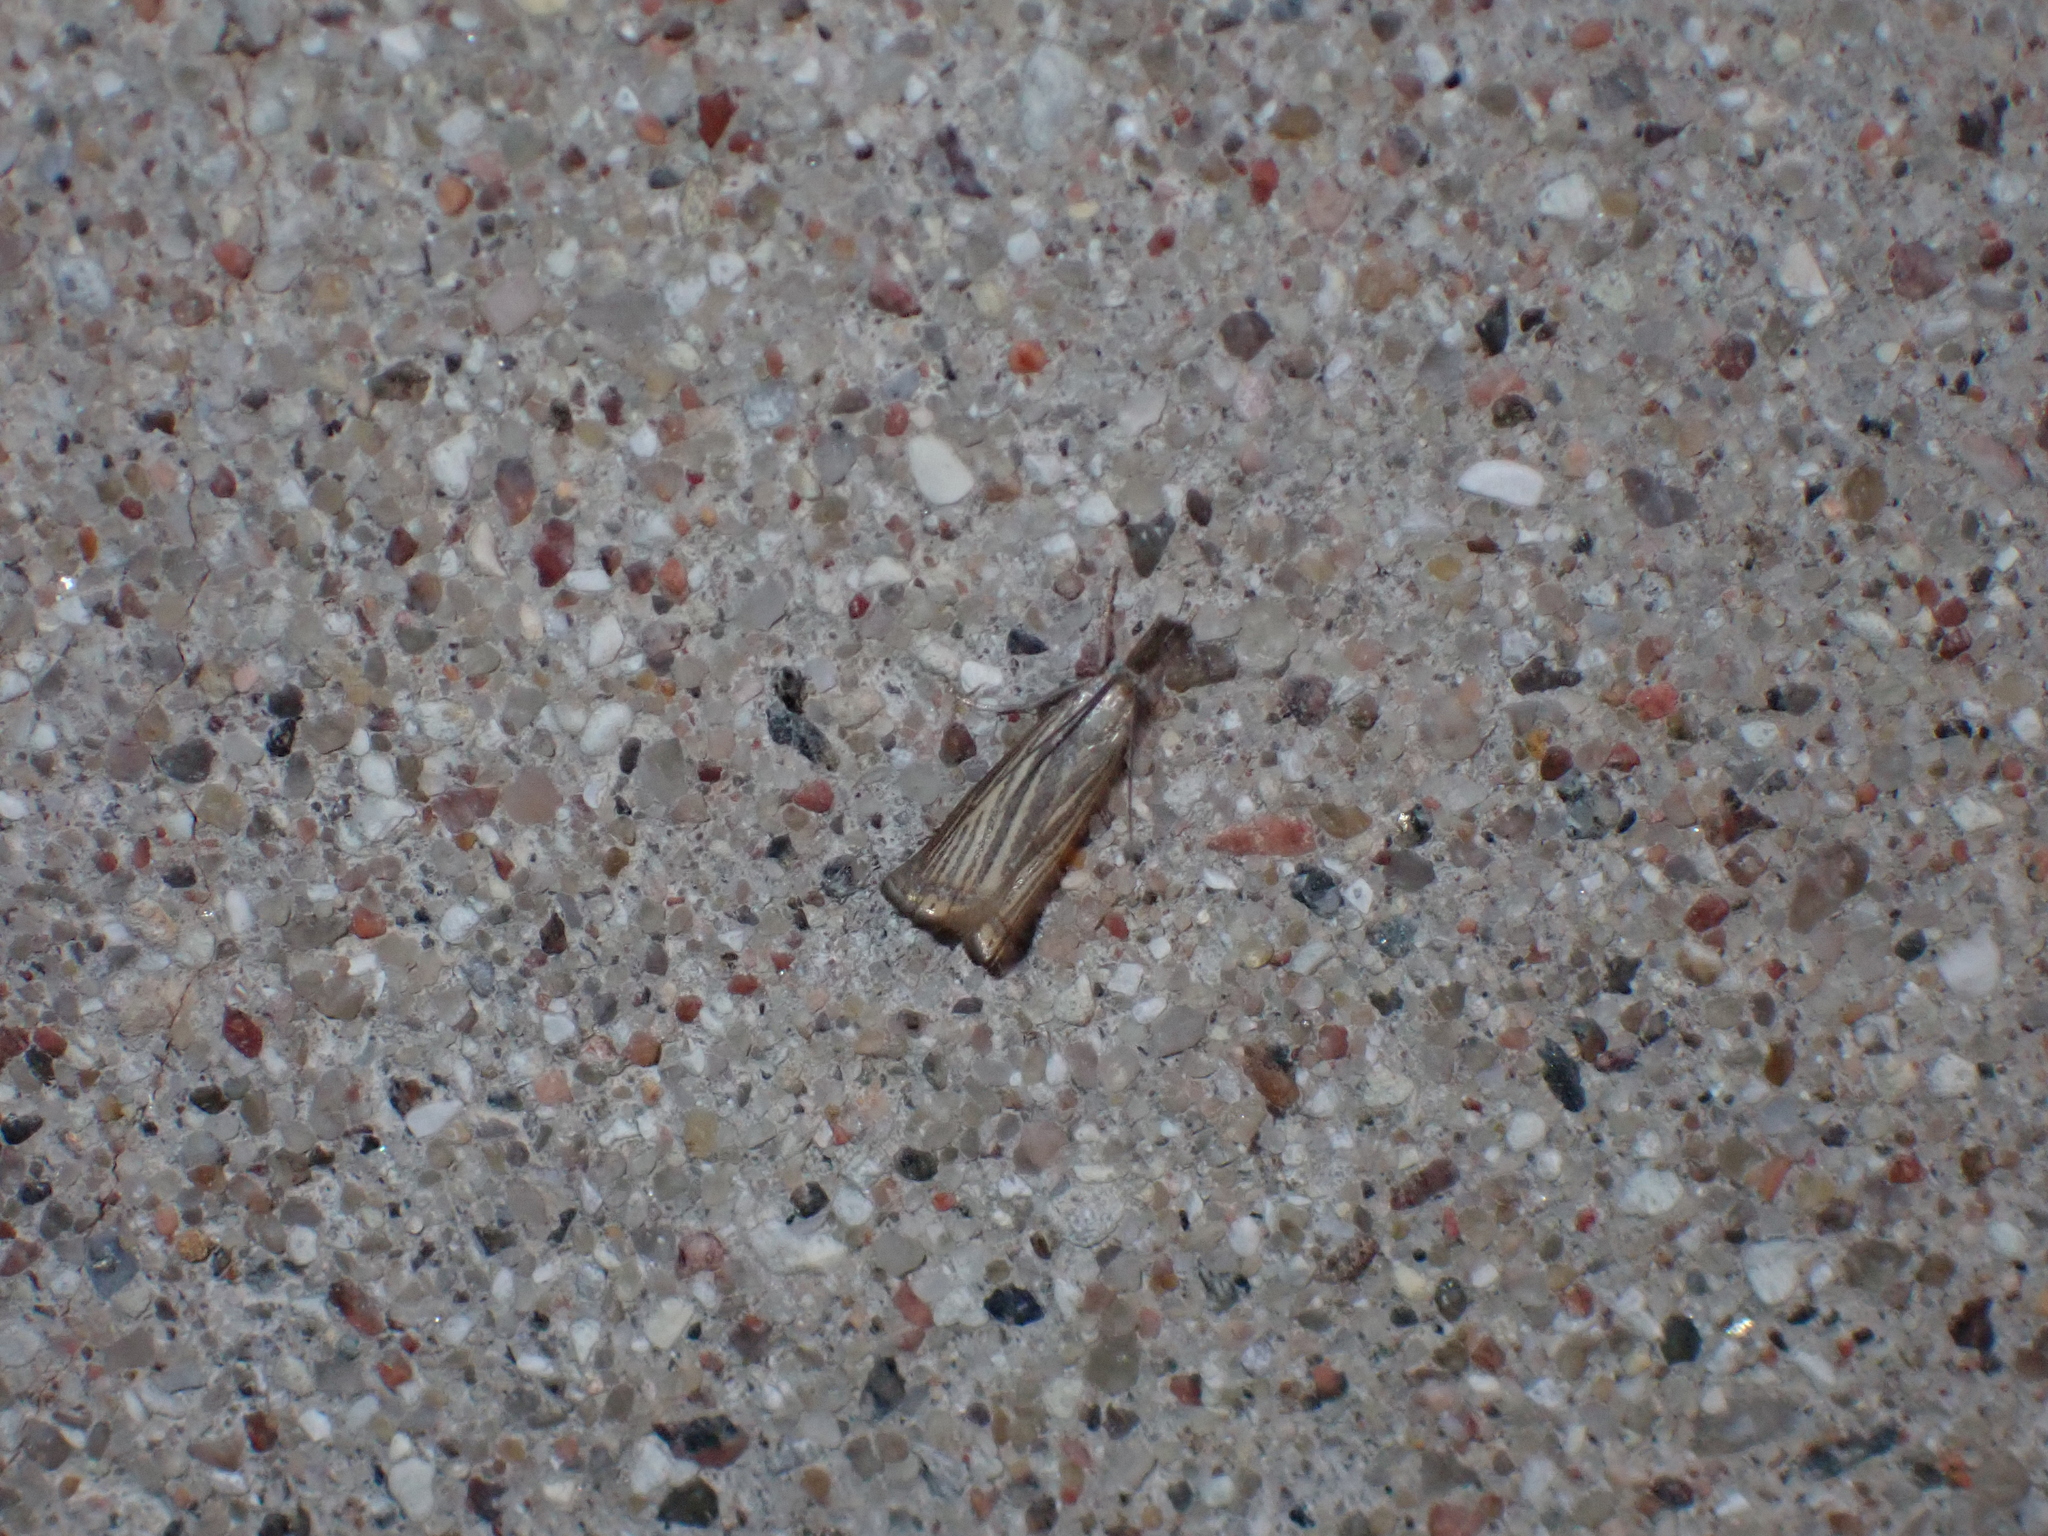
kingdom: Animalia
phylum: Arthropoda
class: Insecta
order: Lepidoptera
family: Crambidae
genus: Chrysoteuchia
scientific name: Chrysoteuchia culmella
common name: Garden grass-veneer
